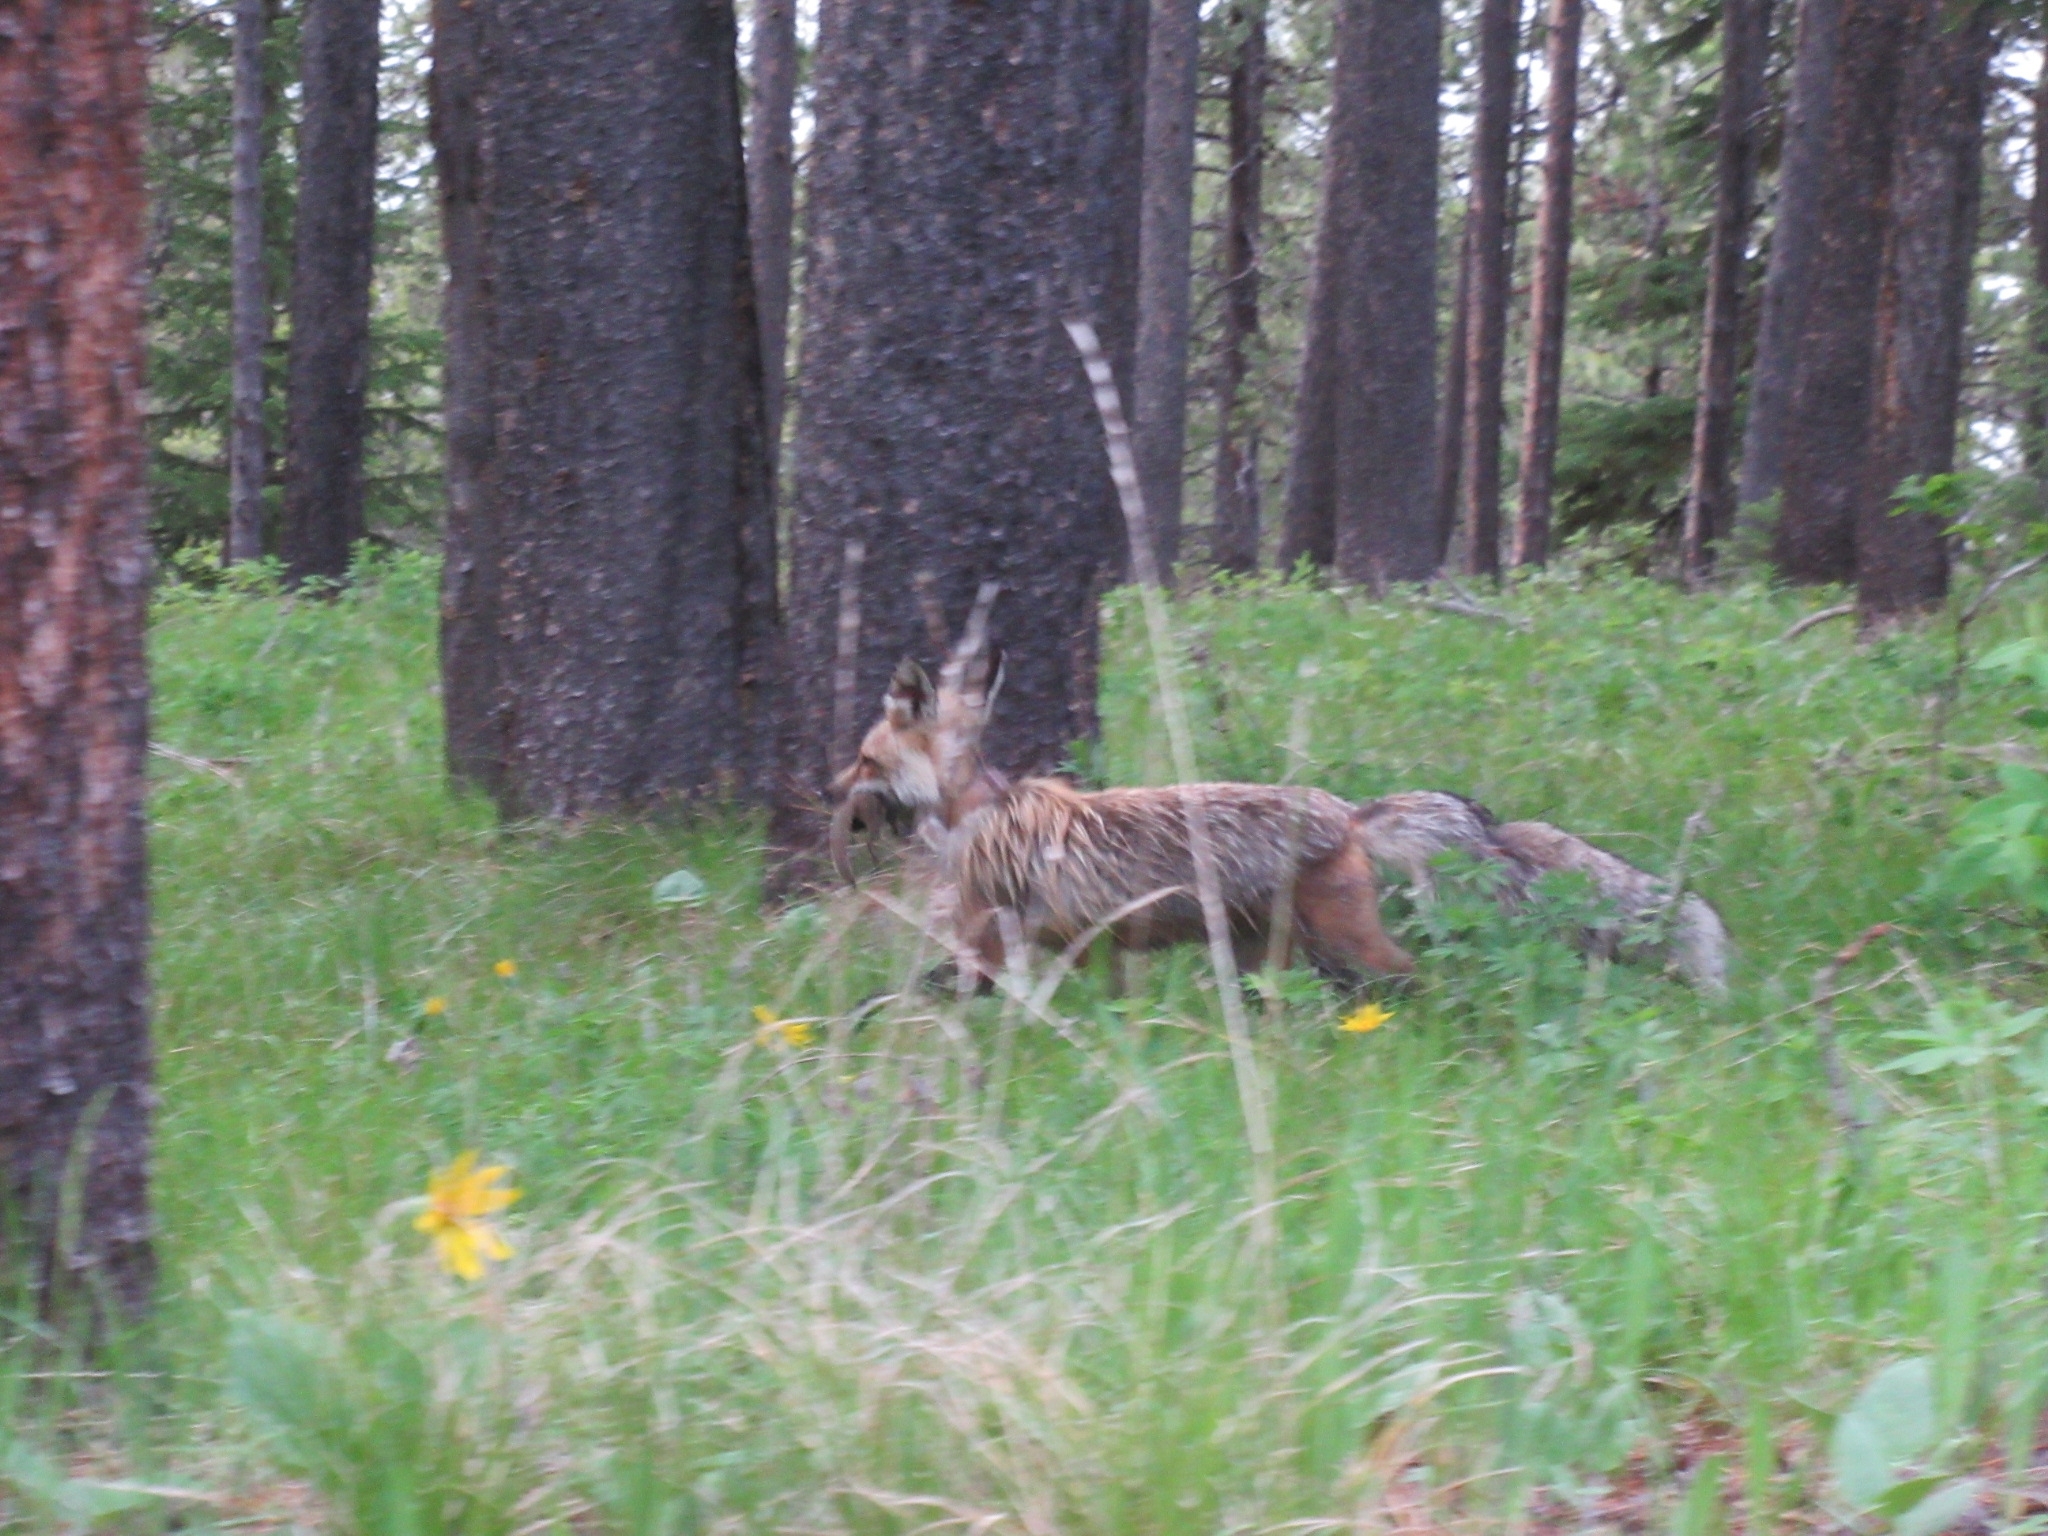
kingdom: Animalia
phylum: Chordata
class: Mammalia
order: Carnivora
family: Canidae
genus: Vulpes
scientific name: Vulpes vulpes
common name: Red fox
